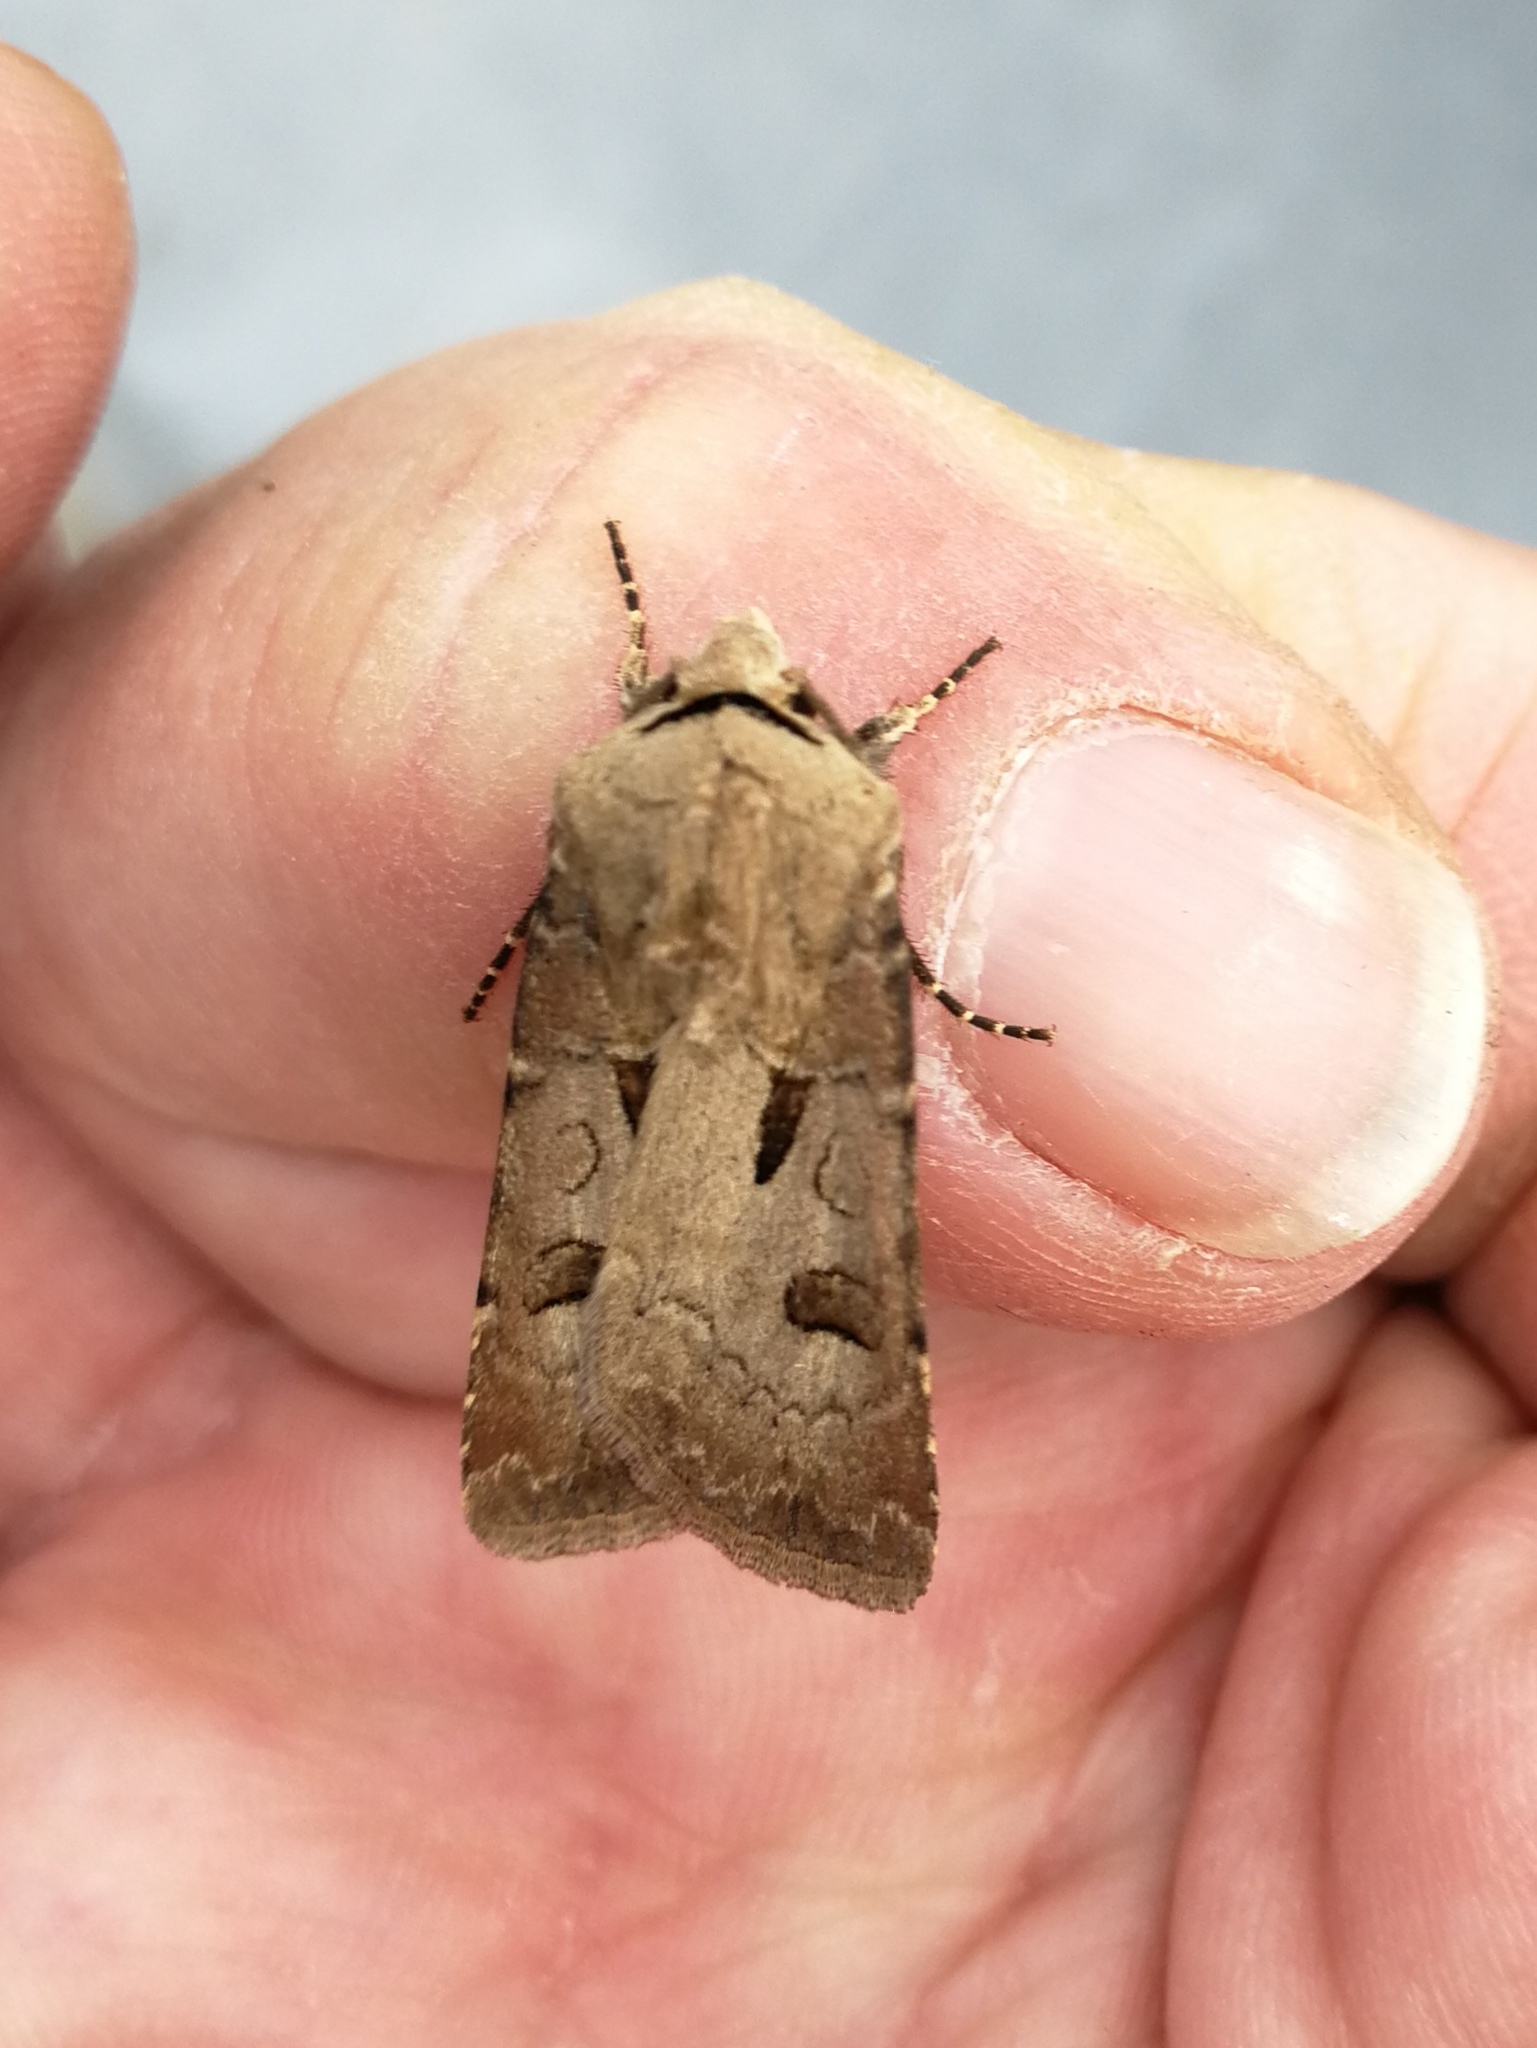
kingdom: Animalia
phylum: Arthropoda
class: Insecta
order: Lepidoptera
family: Noctuidae
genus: Agrotis
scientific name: Agrotis exclamationis
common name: Heart and dart
